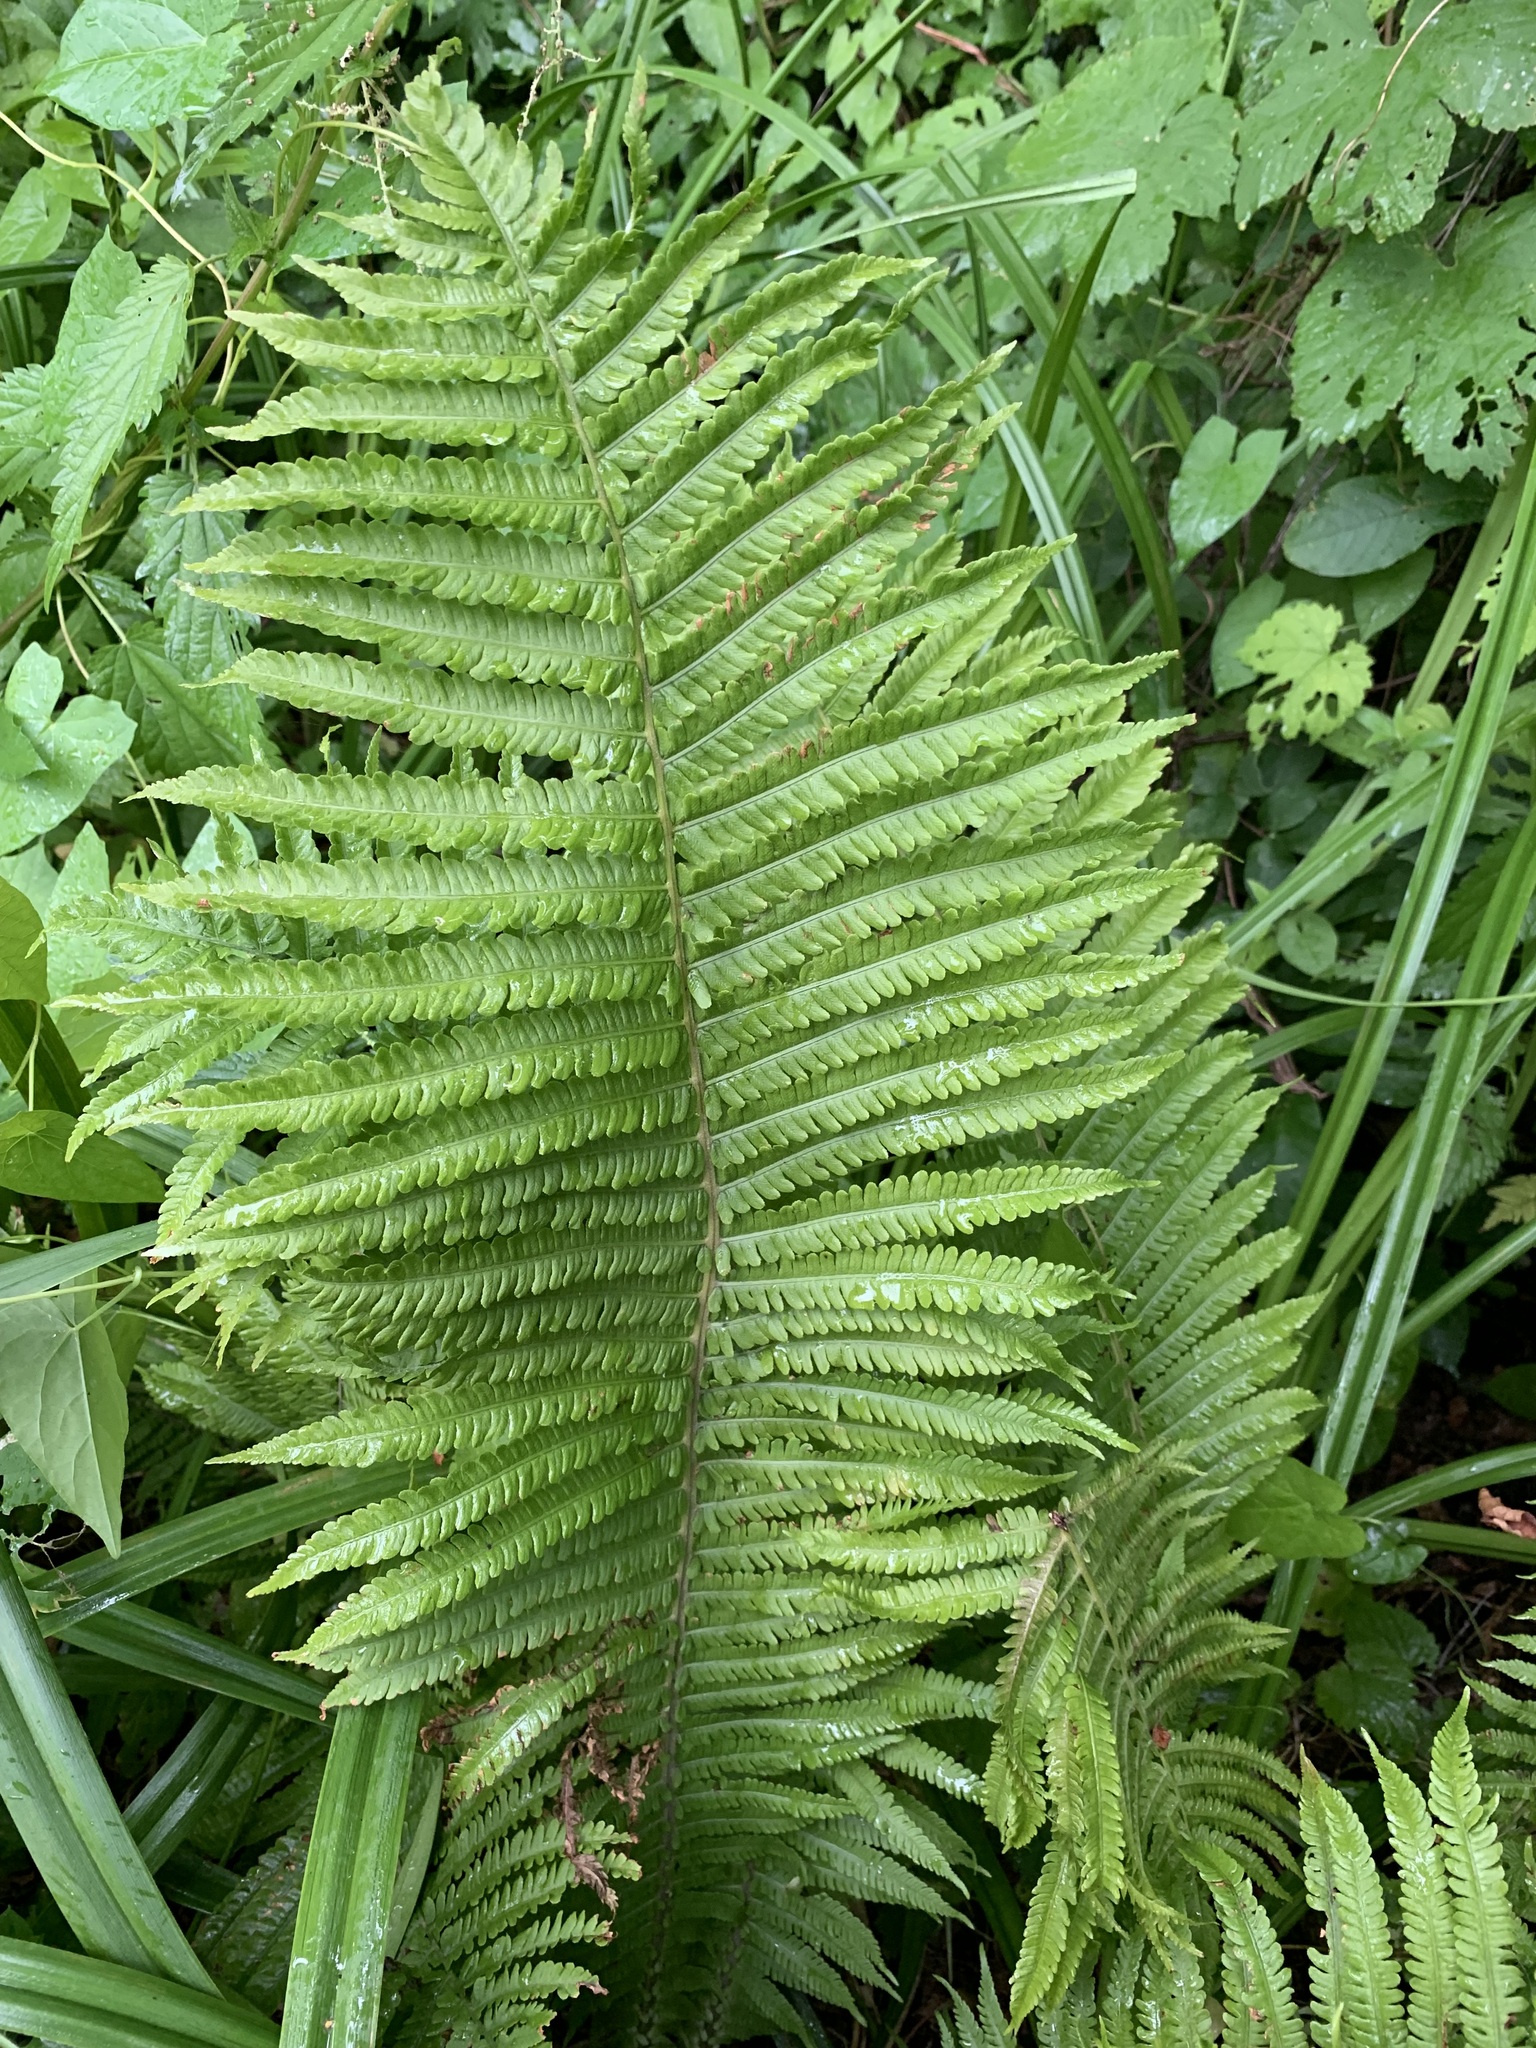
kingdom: Plantae
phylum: Tracheophyta
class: Polypodiopsida
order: Polypodiales
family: Onocleaceae
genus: Matteuccia
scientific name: Matteuccia struthiopteris
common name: Ostrich fern
